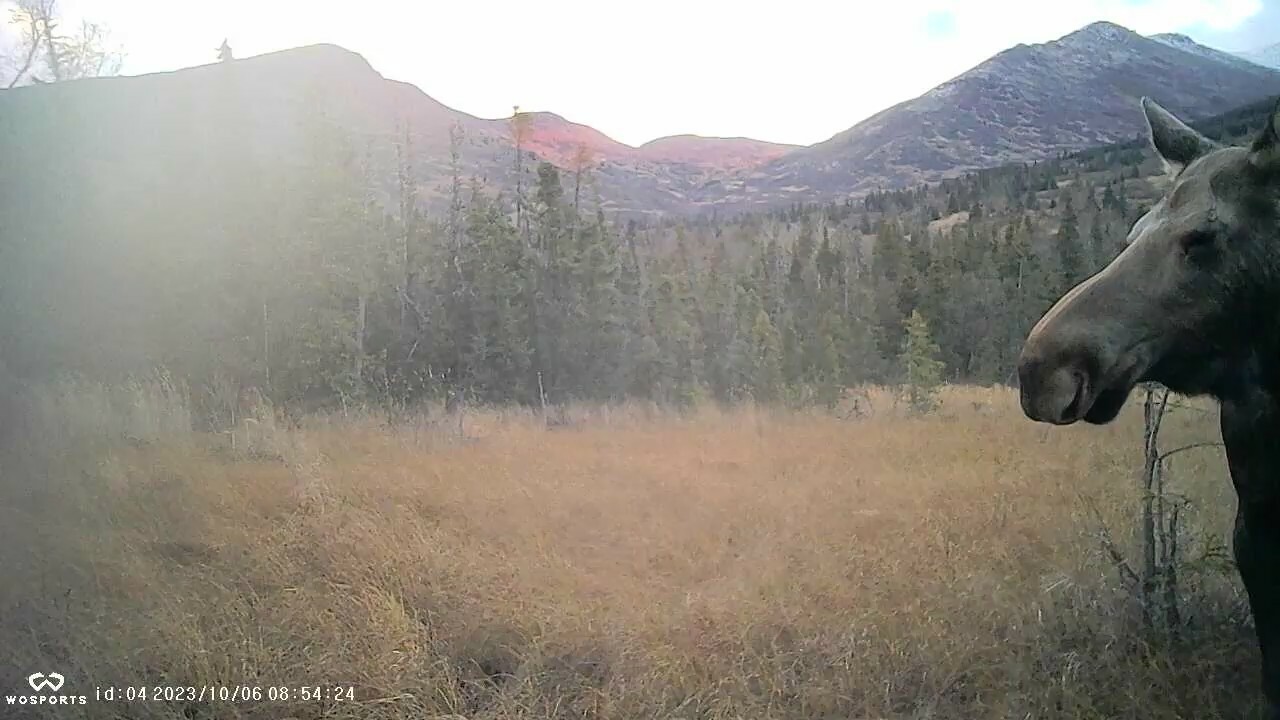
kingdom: Animalia
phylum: Chordata
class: Mammalia
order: Artiodactyla
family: Cervidae
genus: Alces
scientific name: Alces alces
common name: Moose
